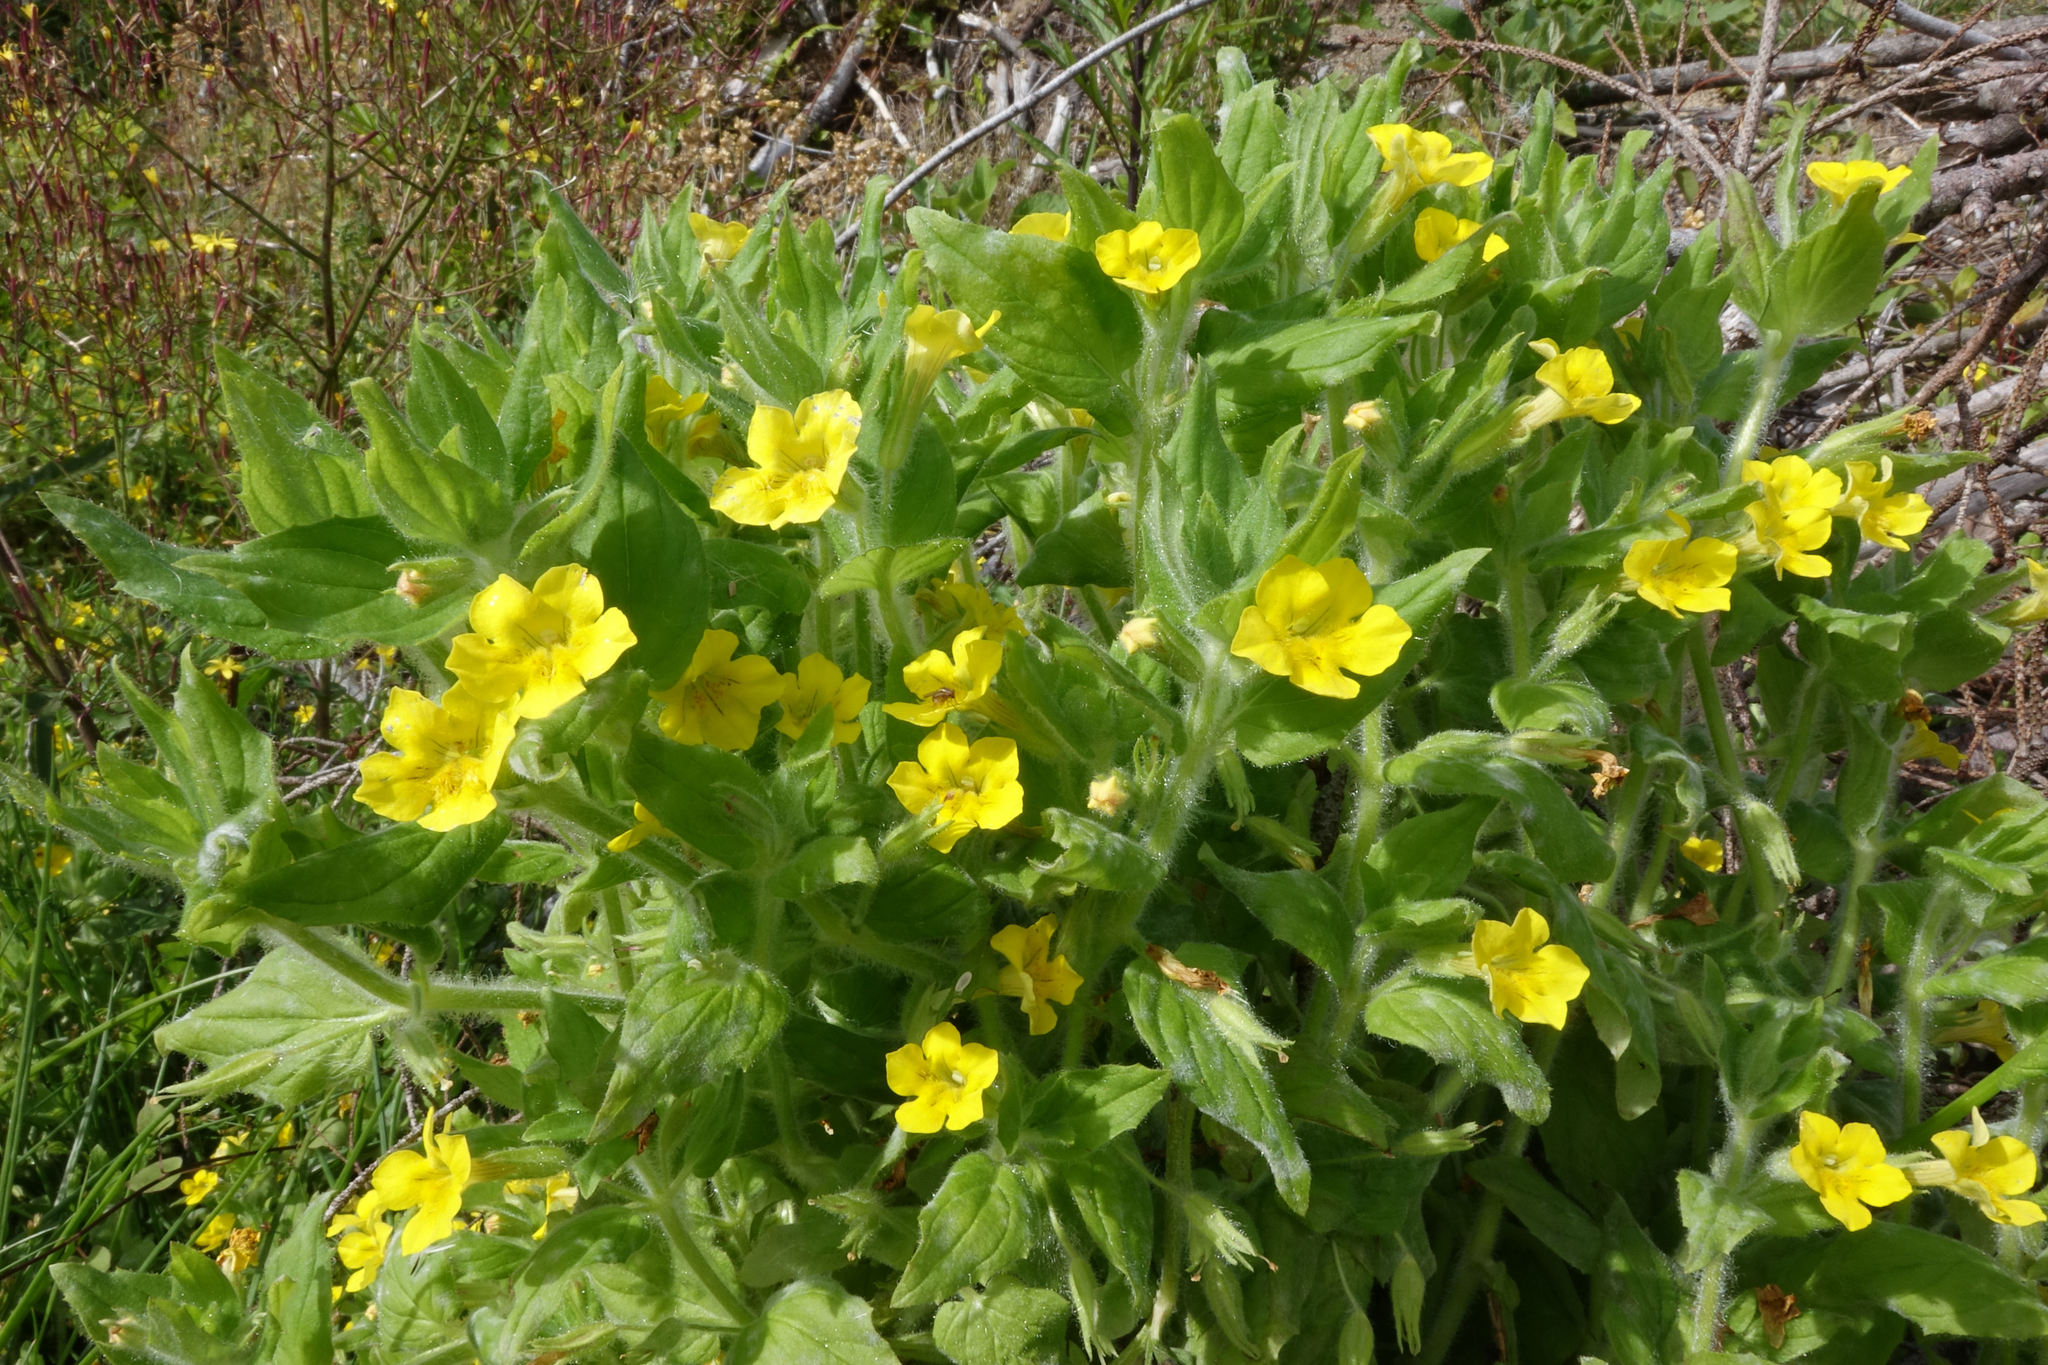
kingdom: Plantae
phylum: Tracheophyta
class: Magnoliopsida
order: Lamiales
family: Phrymaceae
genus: Erythranthe
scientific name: Erythranthe moschata
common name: Muskflower
